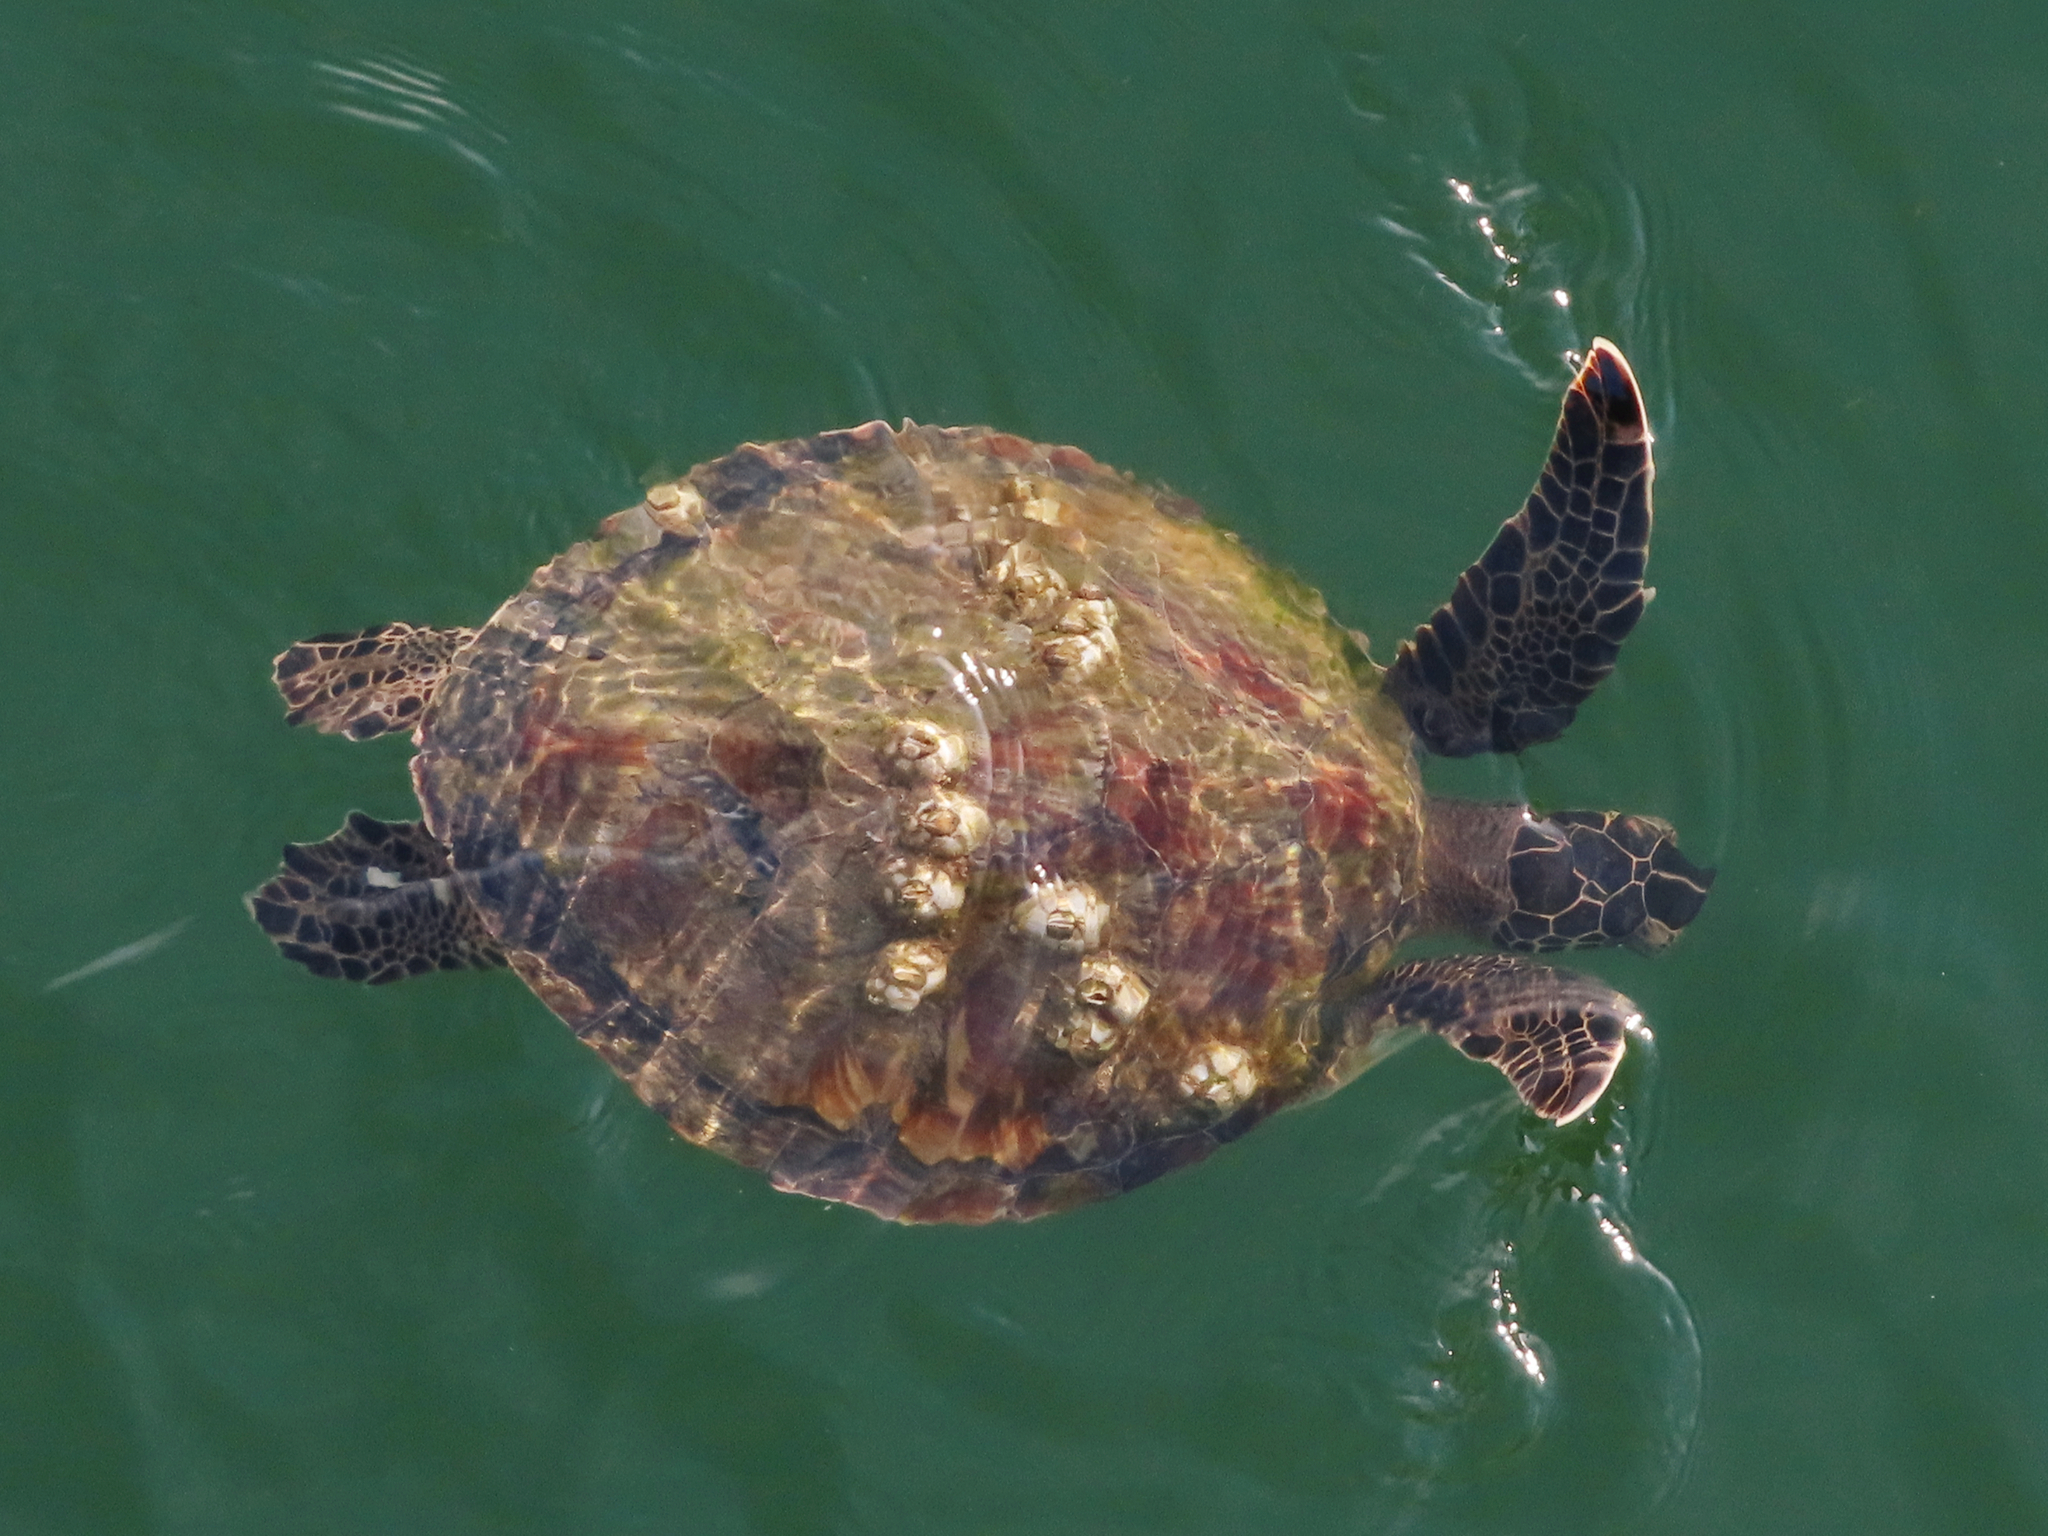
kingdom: Animalia
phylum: Chordata
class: Testudines
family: Cheloniidae
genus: Chelonia
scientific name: Chelonia mydas
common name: Green turtle
